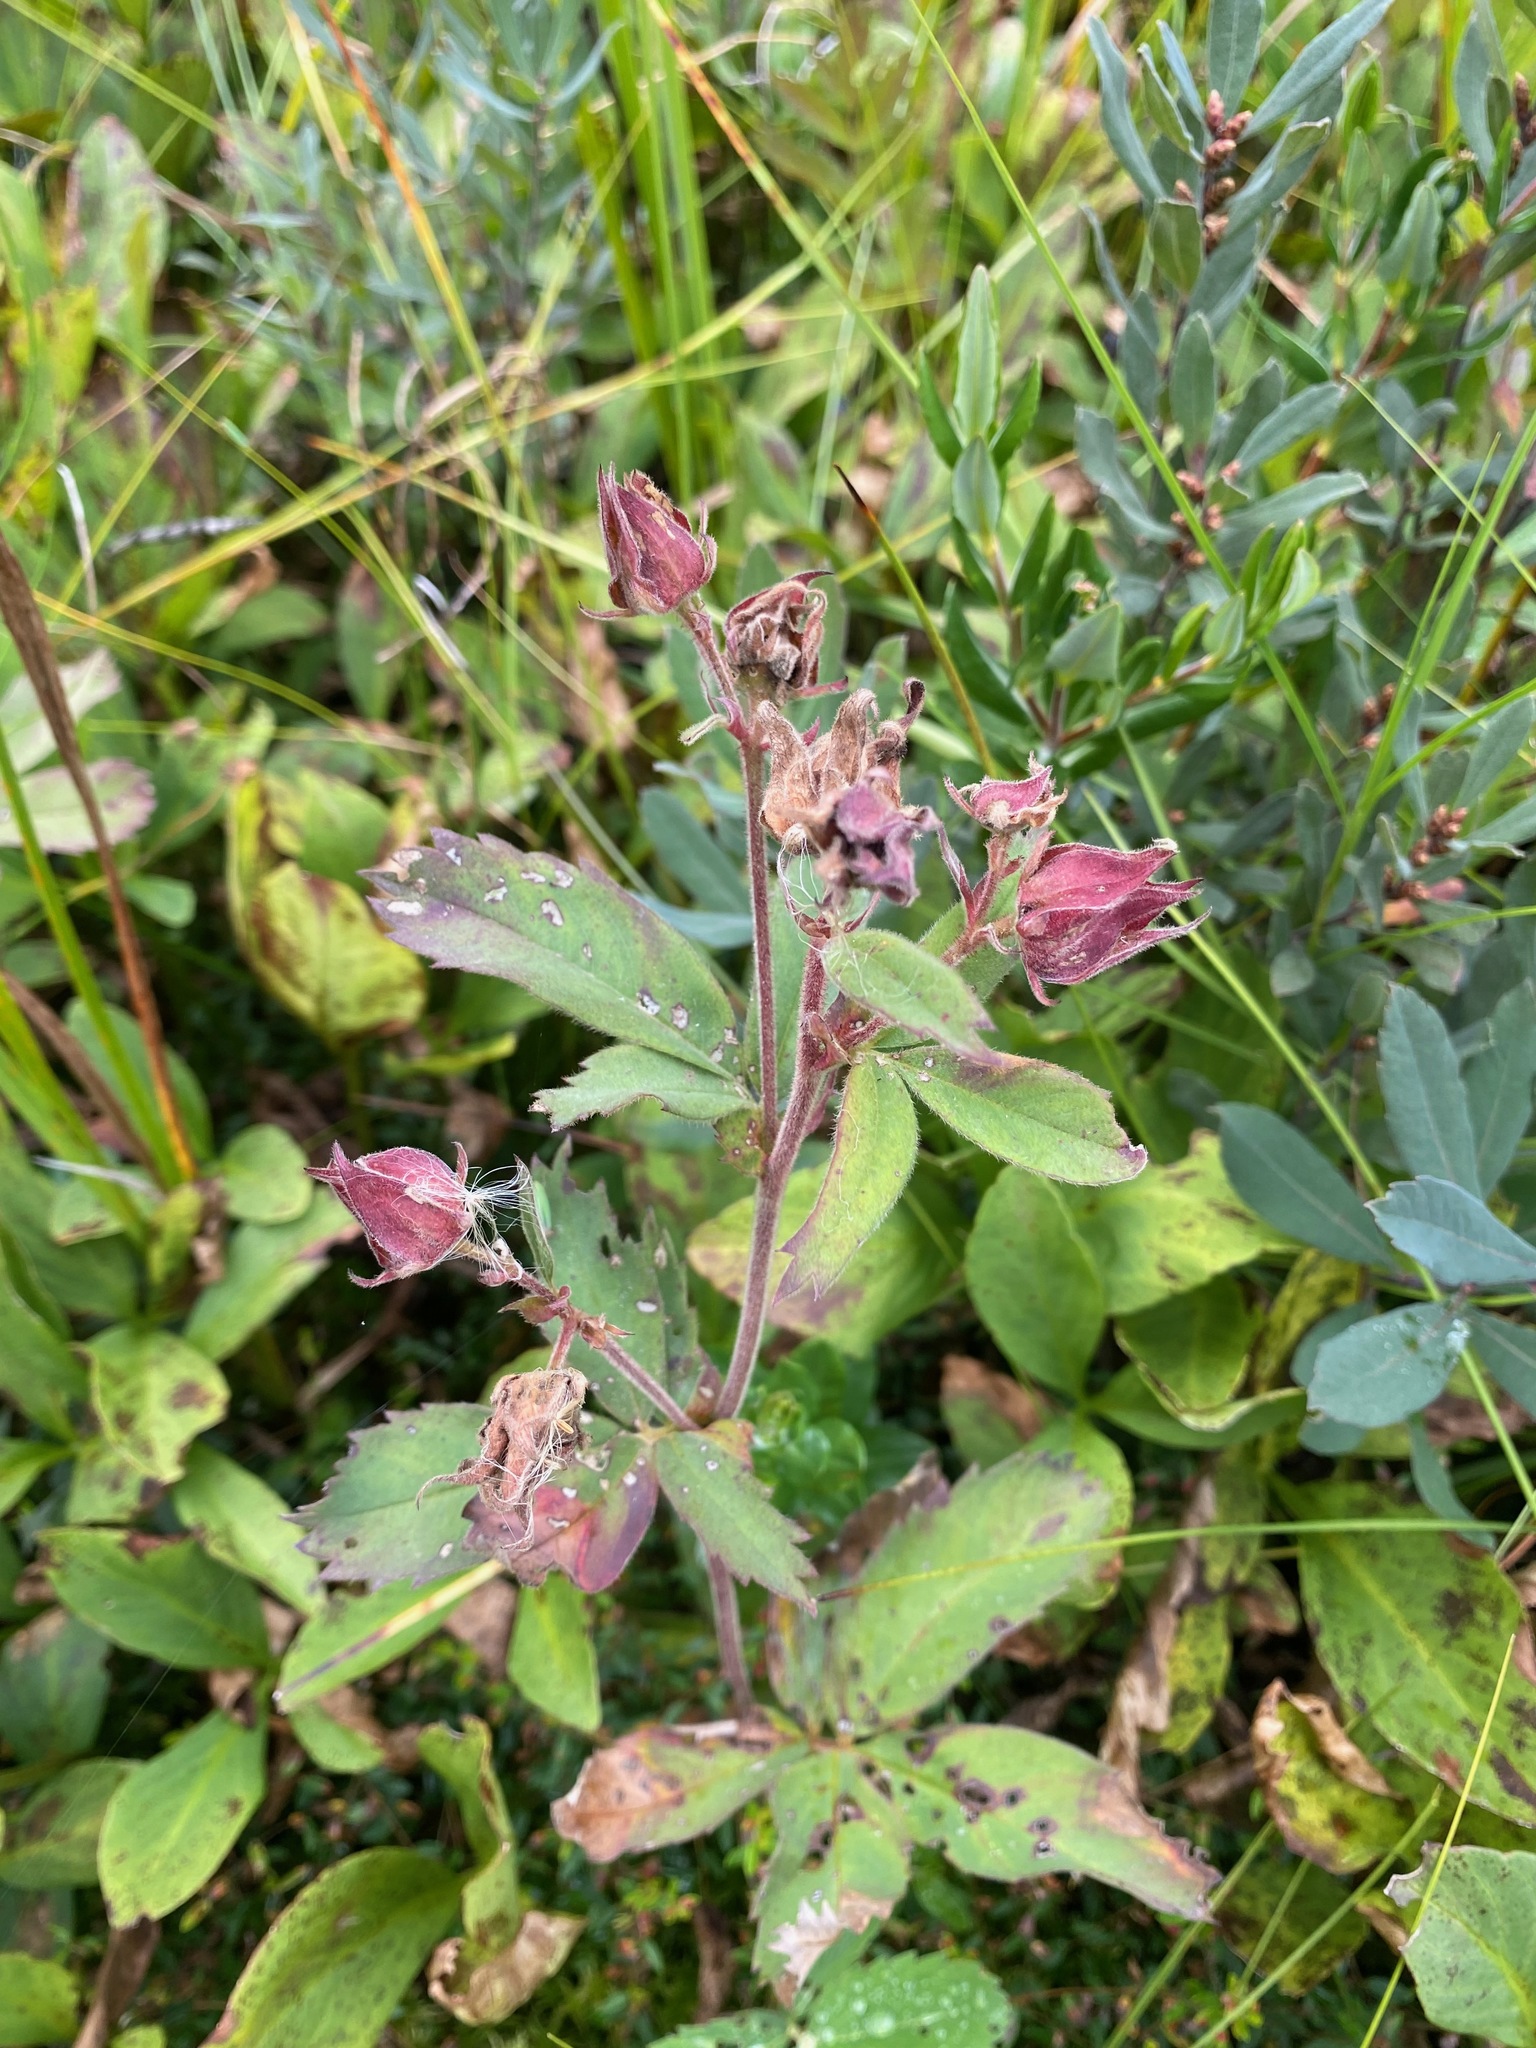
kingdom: Plantae
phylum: Tracheophyta
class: Magnoliopsida
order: Rosales
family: Rosaceae
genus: Comarum
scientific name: Comarum palustre
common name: Marsh cinquefoil
